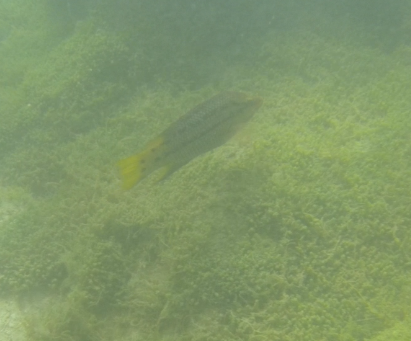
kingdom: Animalia
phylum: Chordata
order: Perciformes
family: Labridae
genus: Bodianus
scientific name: Bodianus diplotaenia
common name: Mexican hogfish
